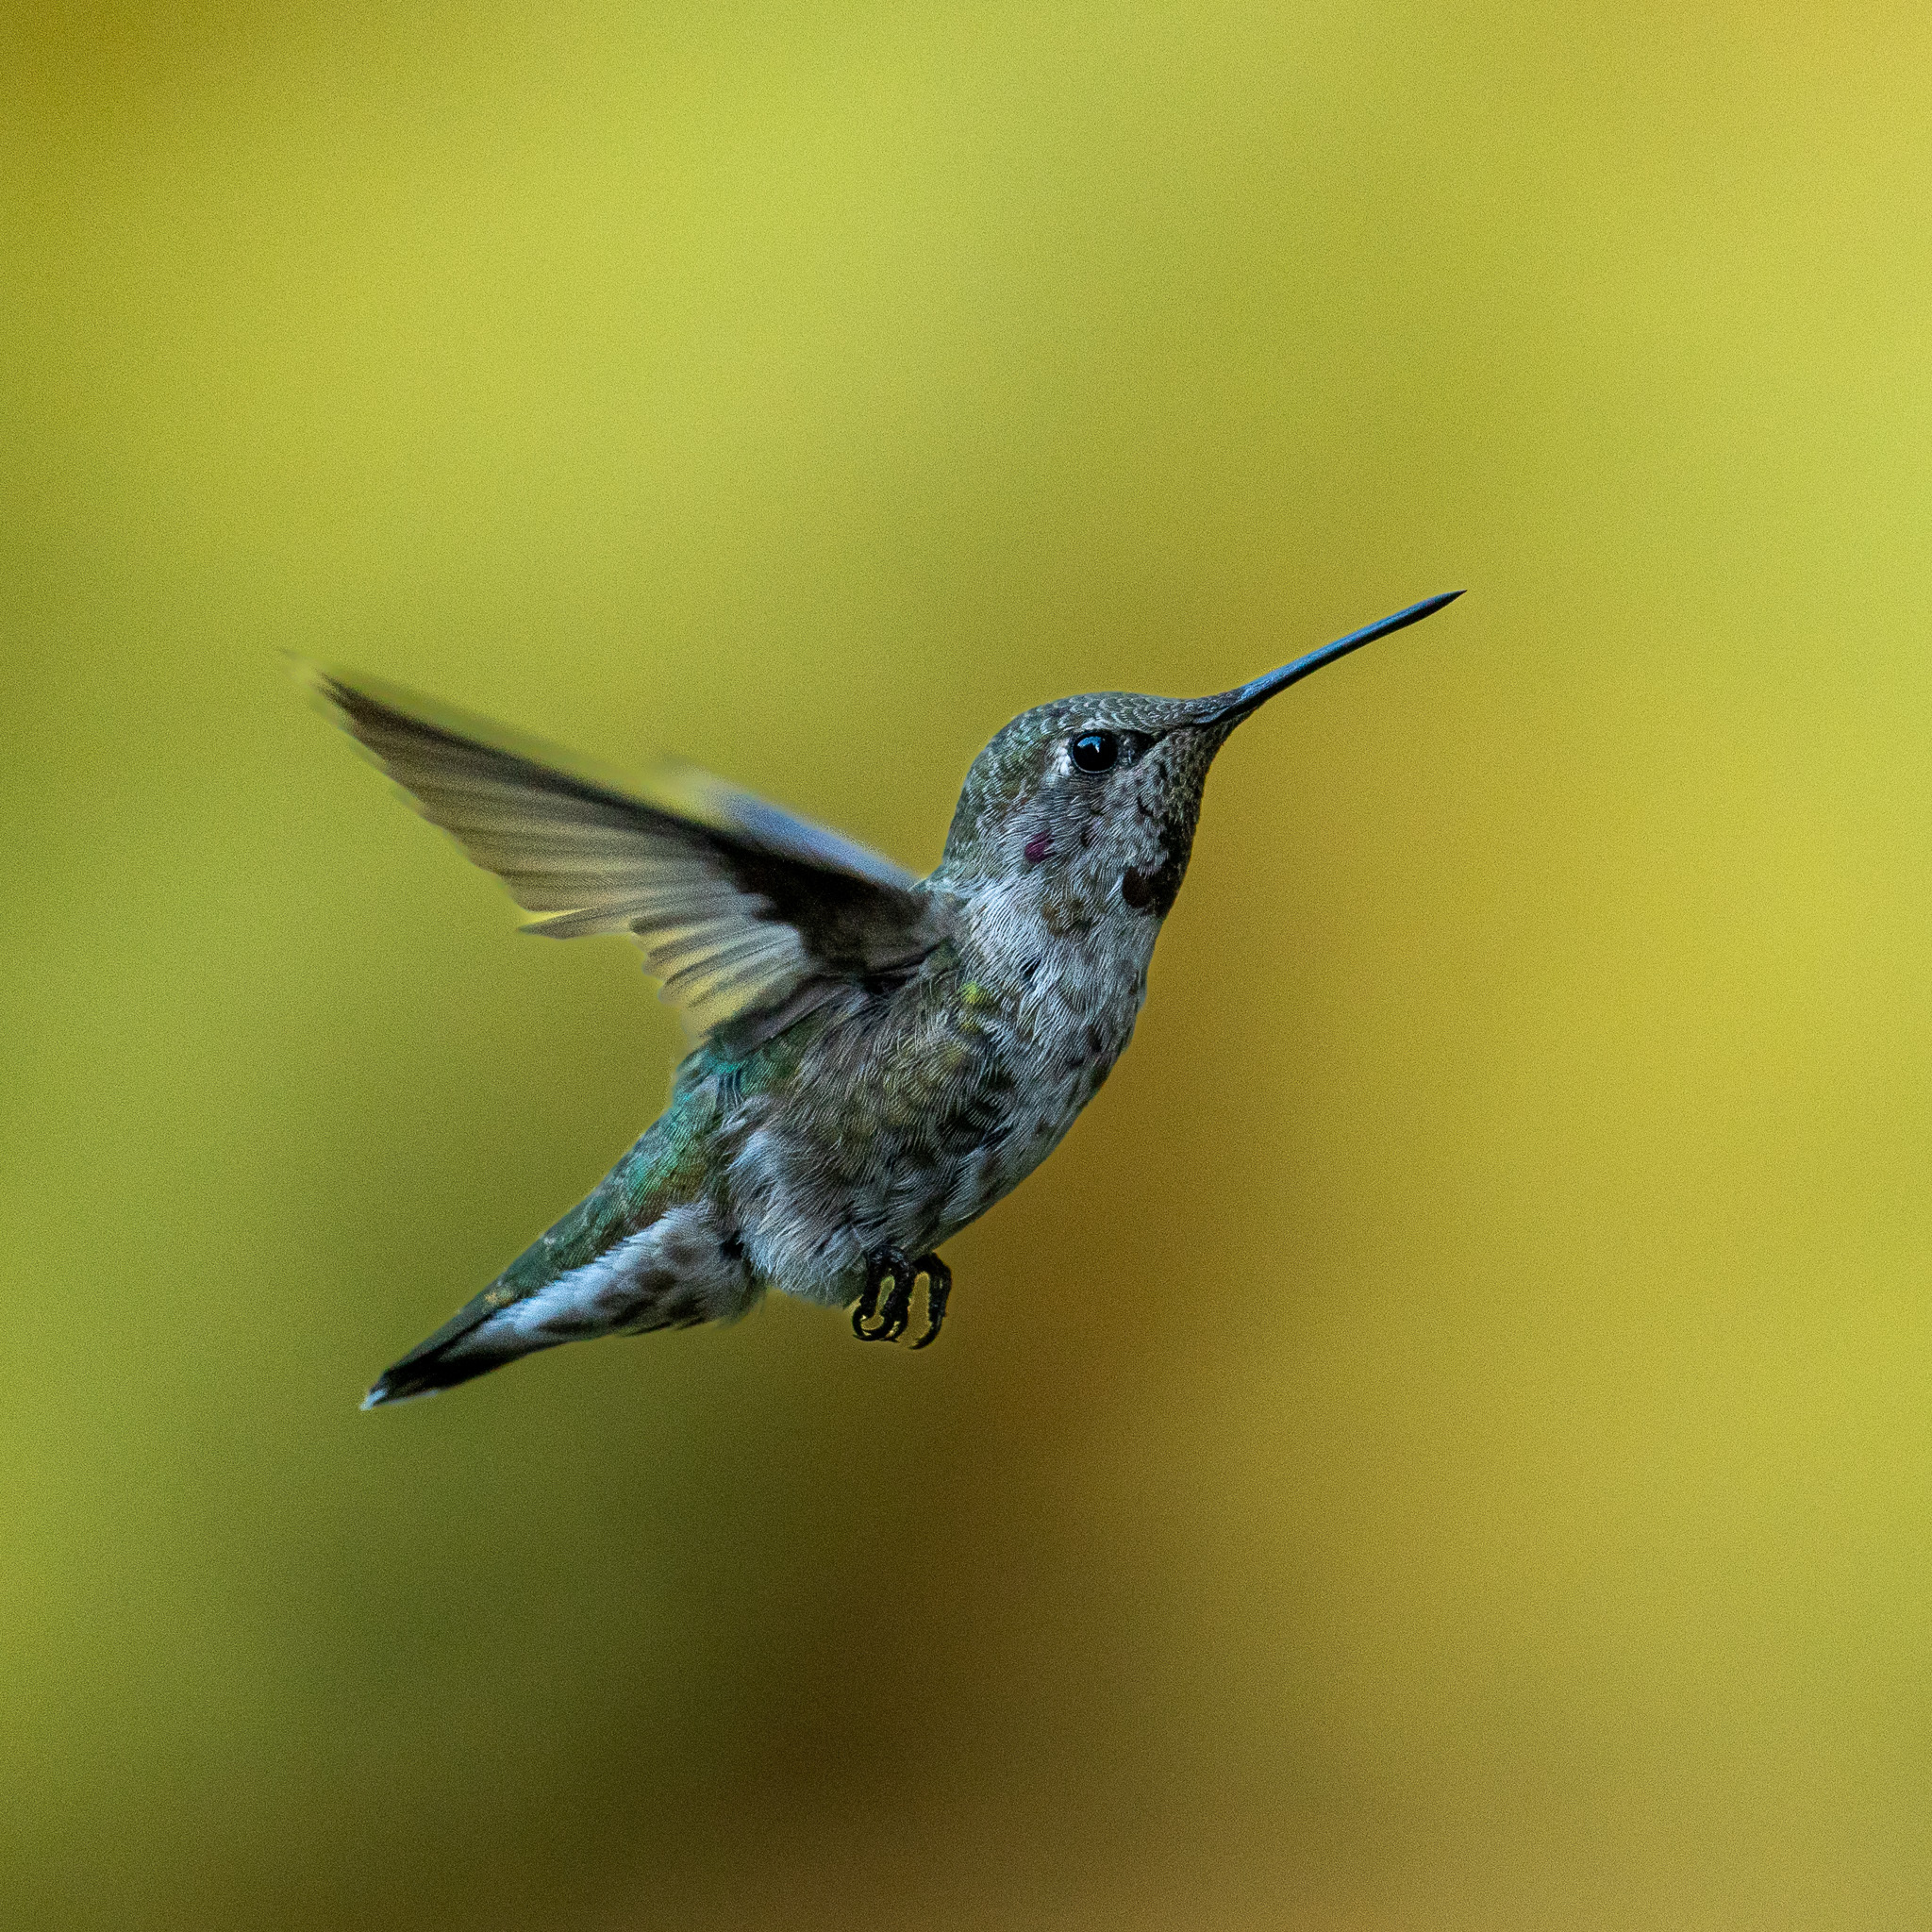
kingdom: Animalia
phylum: Chordata
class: Aves
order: Apodiformes
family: Trochilidae
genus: Calypte
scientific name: Calypte anna
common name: Anna's hummingbird
